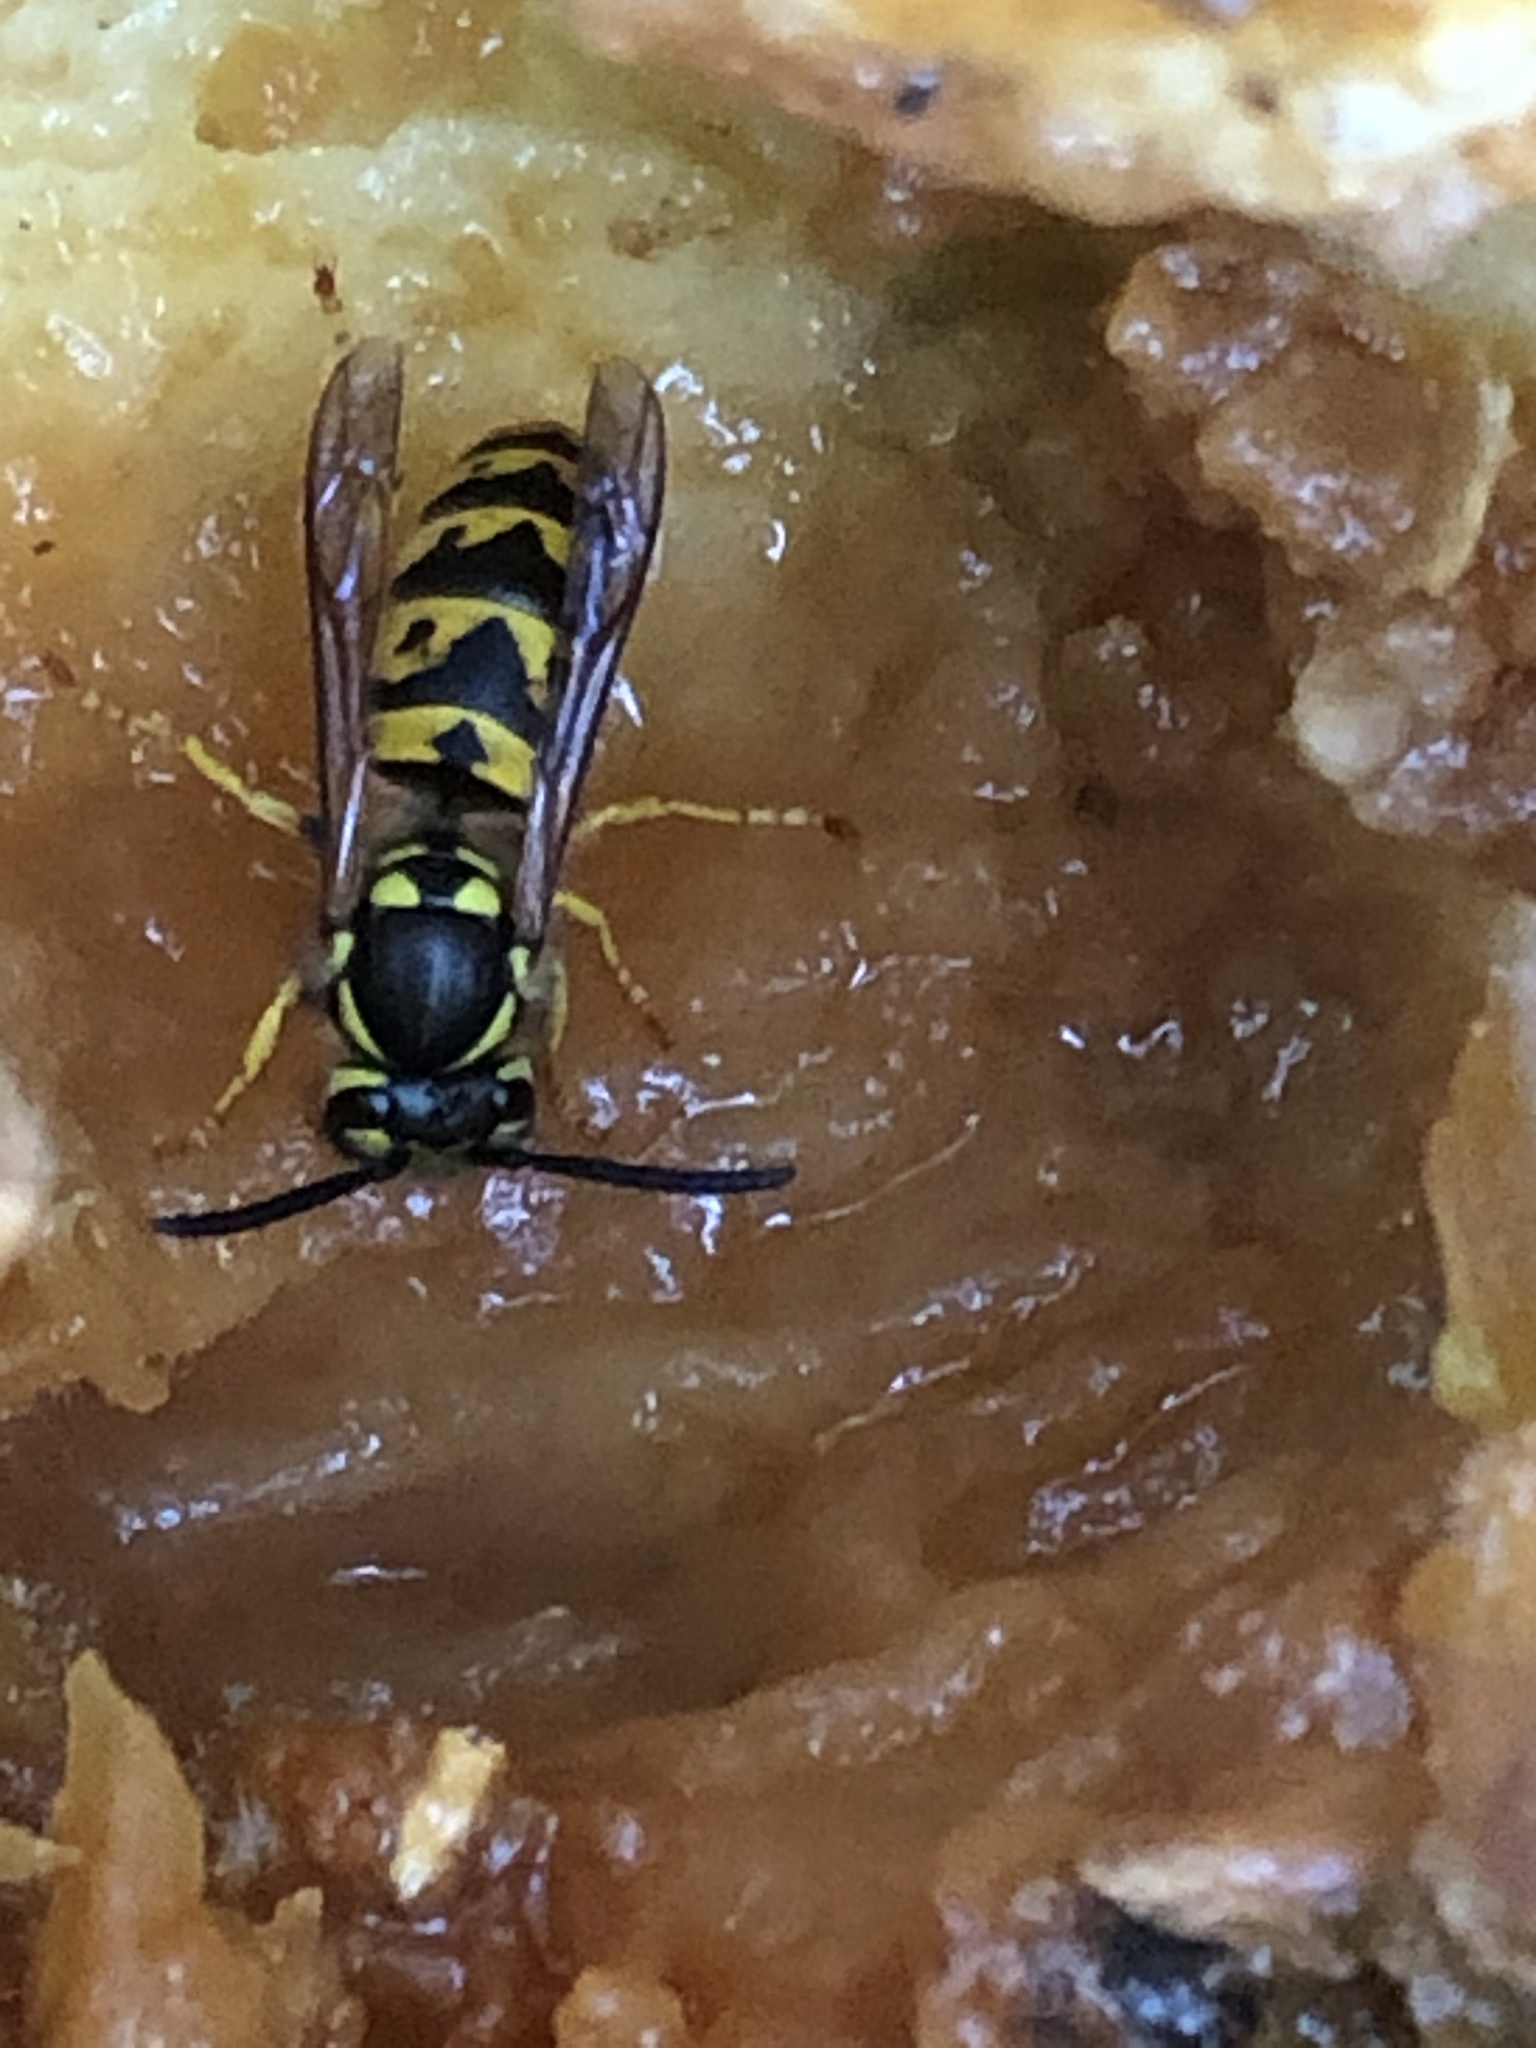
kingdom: Animalia
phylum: Arthropoda
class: Insecta
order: Hymenoptera
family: Vespidae
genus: Vespula
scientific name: Vespula germanica
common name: German wasp
